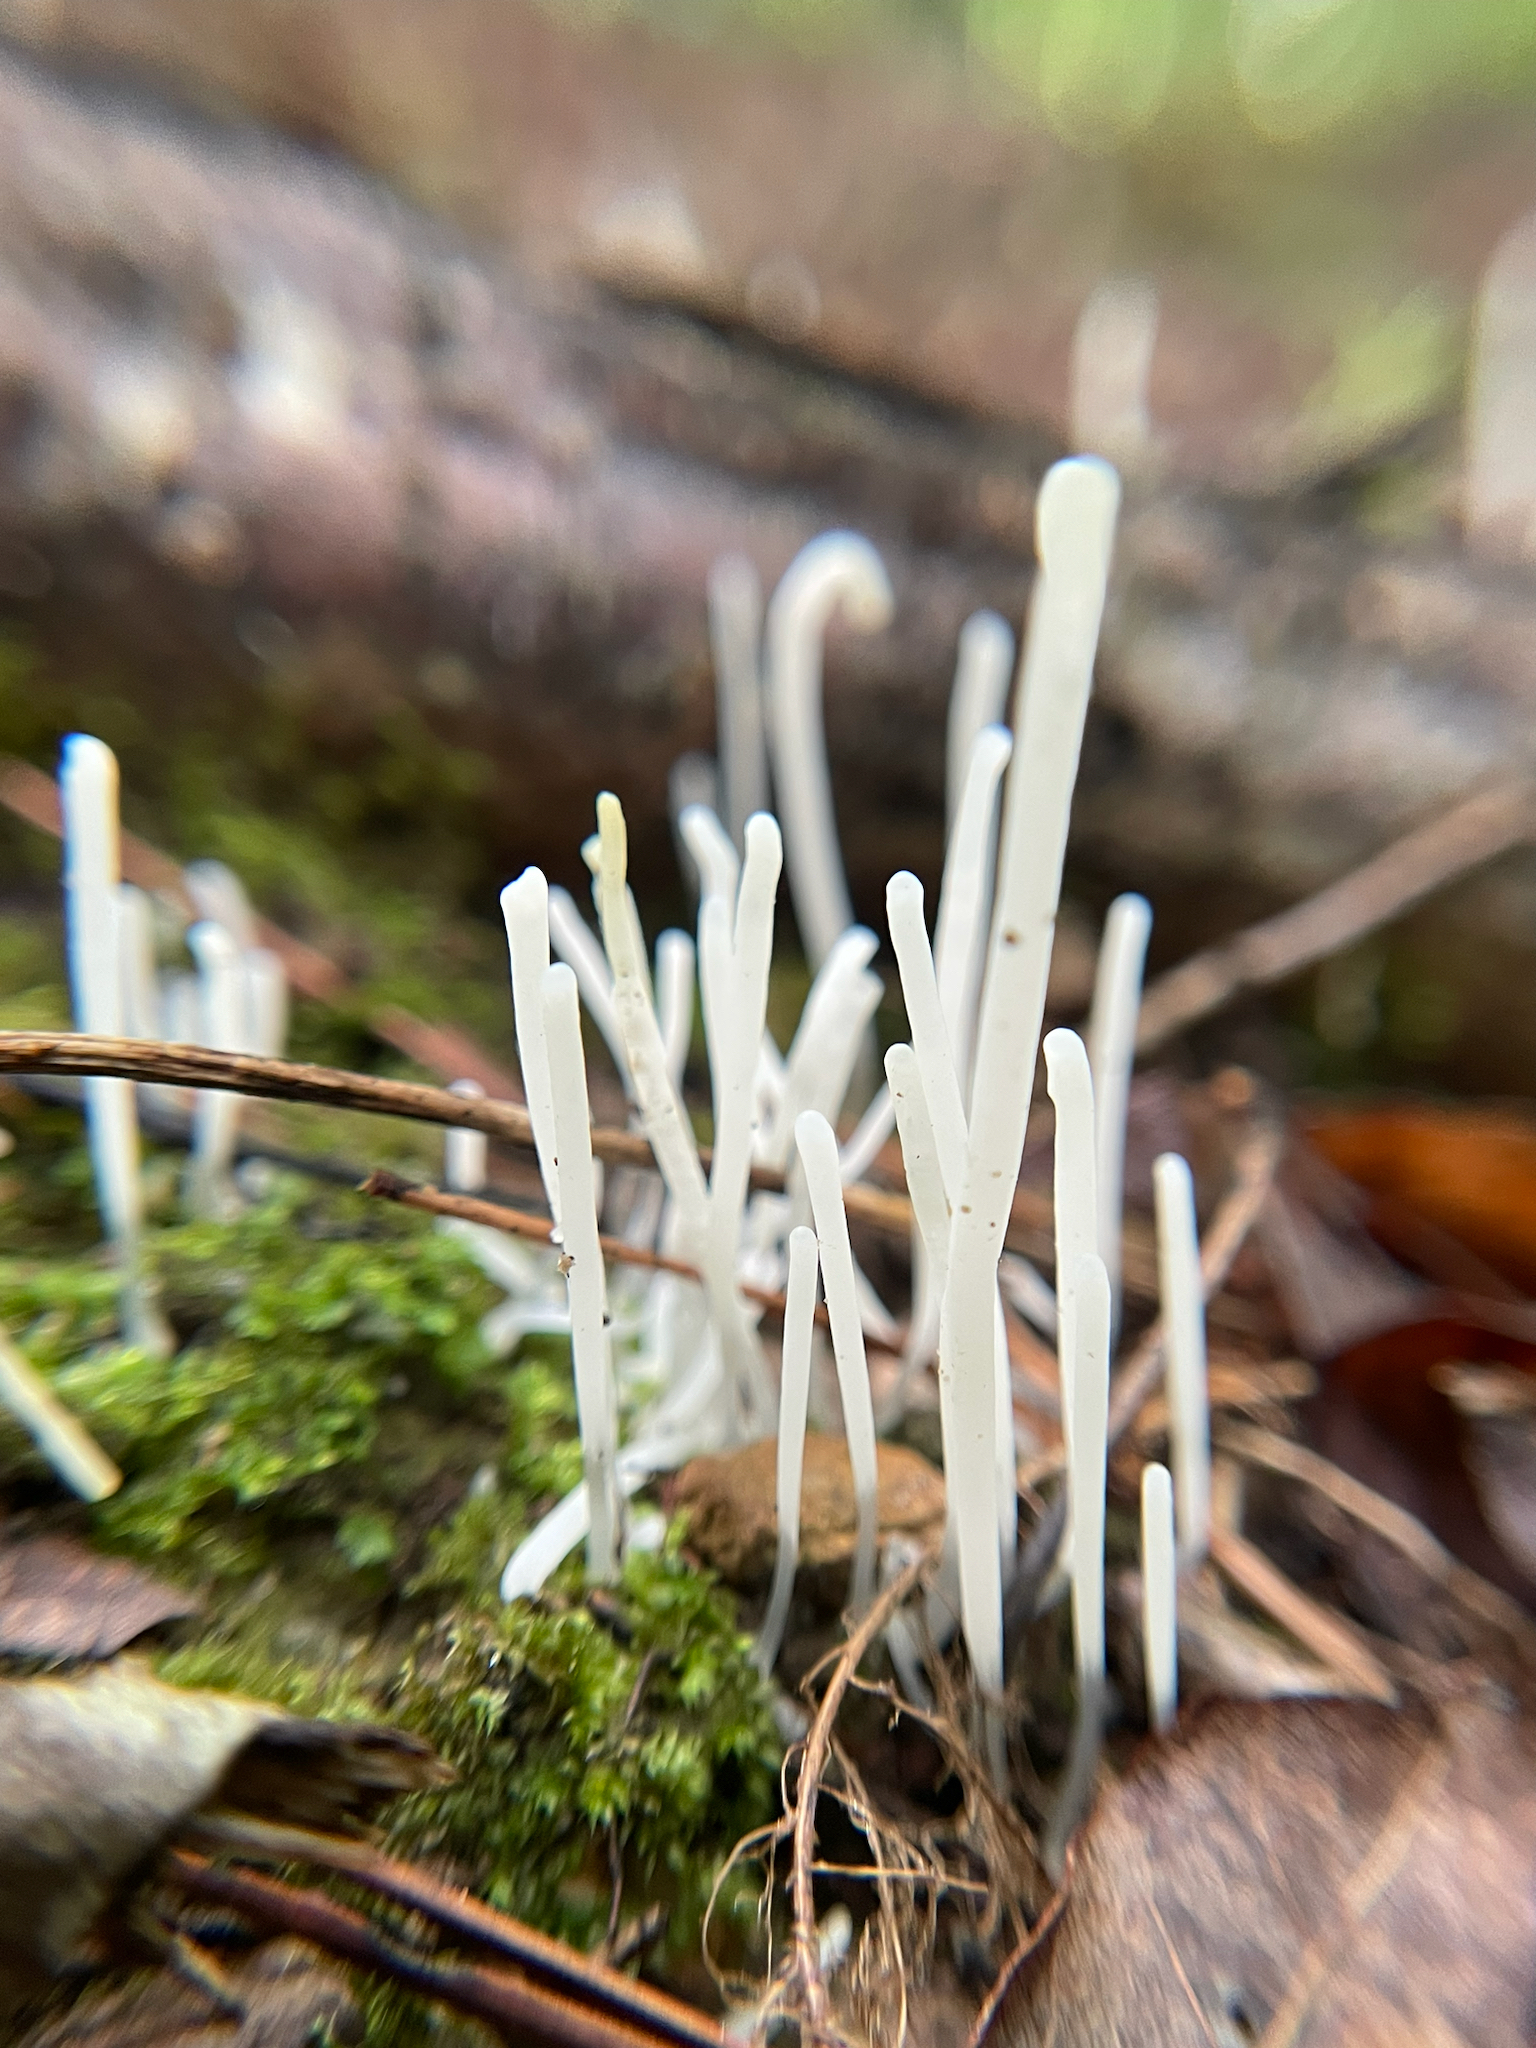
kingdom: Fungi
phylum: Basidiomycota
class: Agaricomycetes
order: Agaricales
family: Clavariaceae
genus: Clavaria
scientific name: Clavaria fragilis
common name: White spindles
